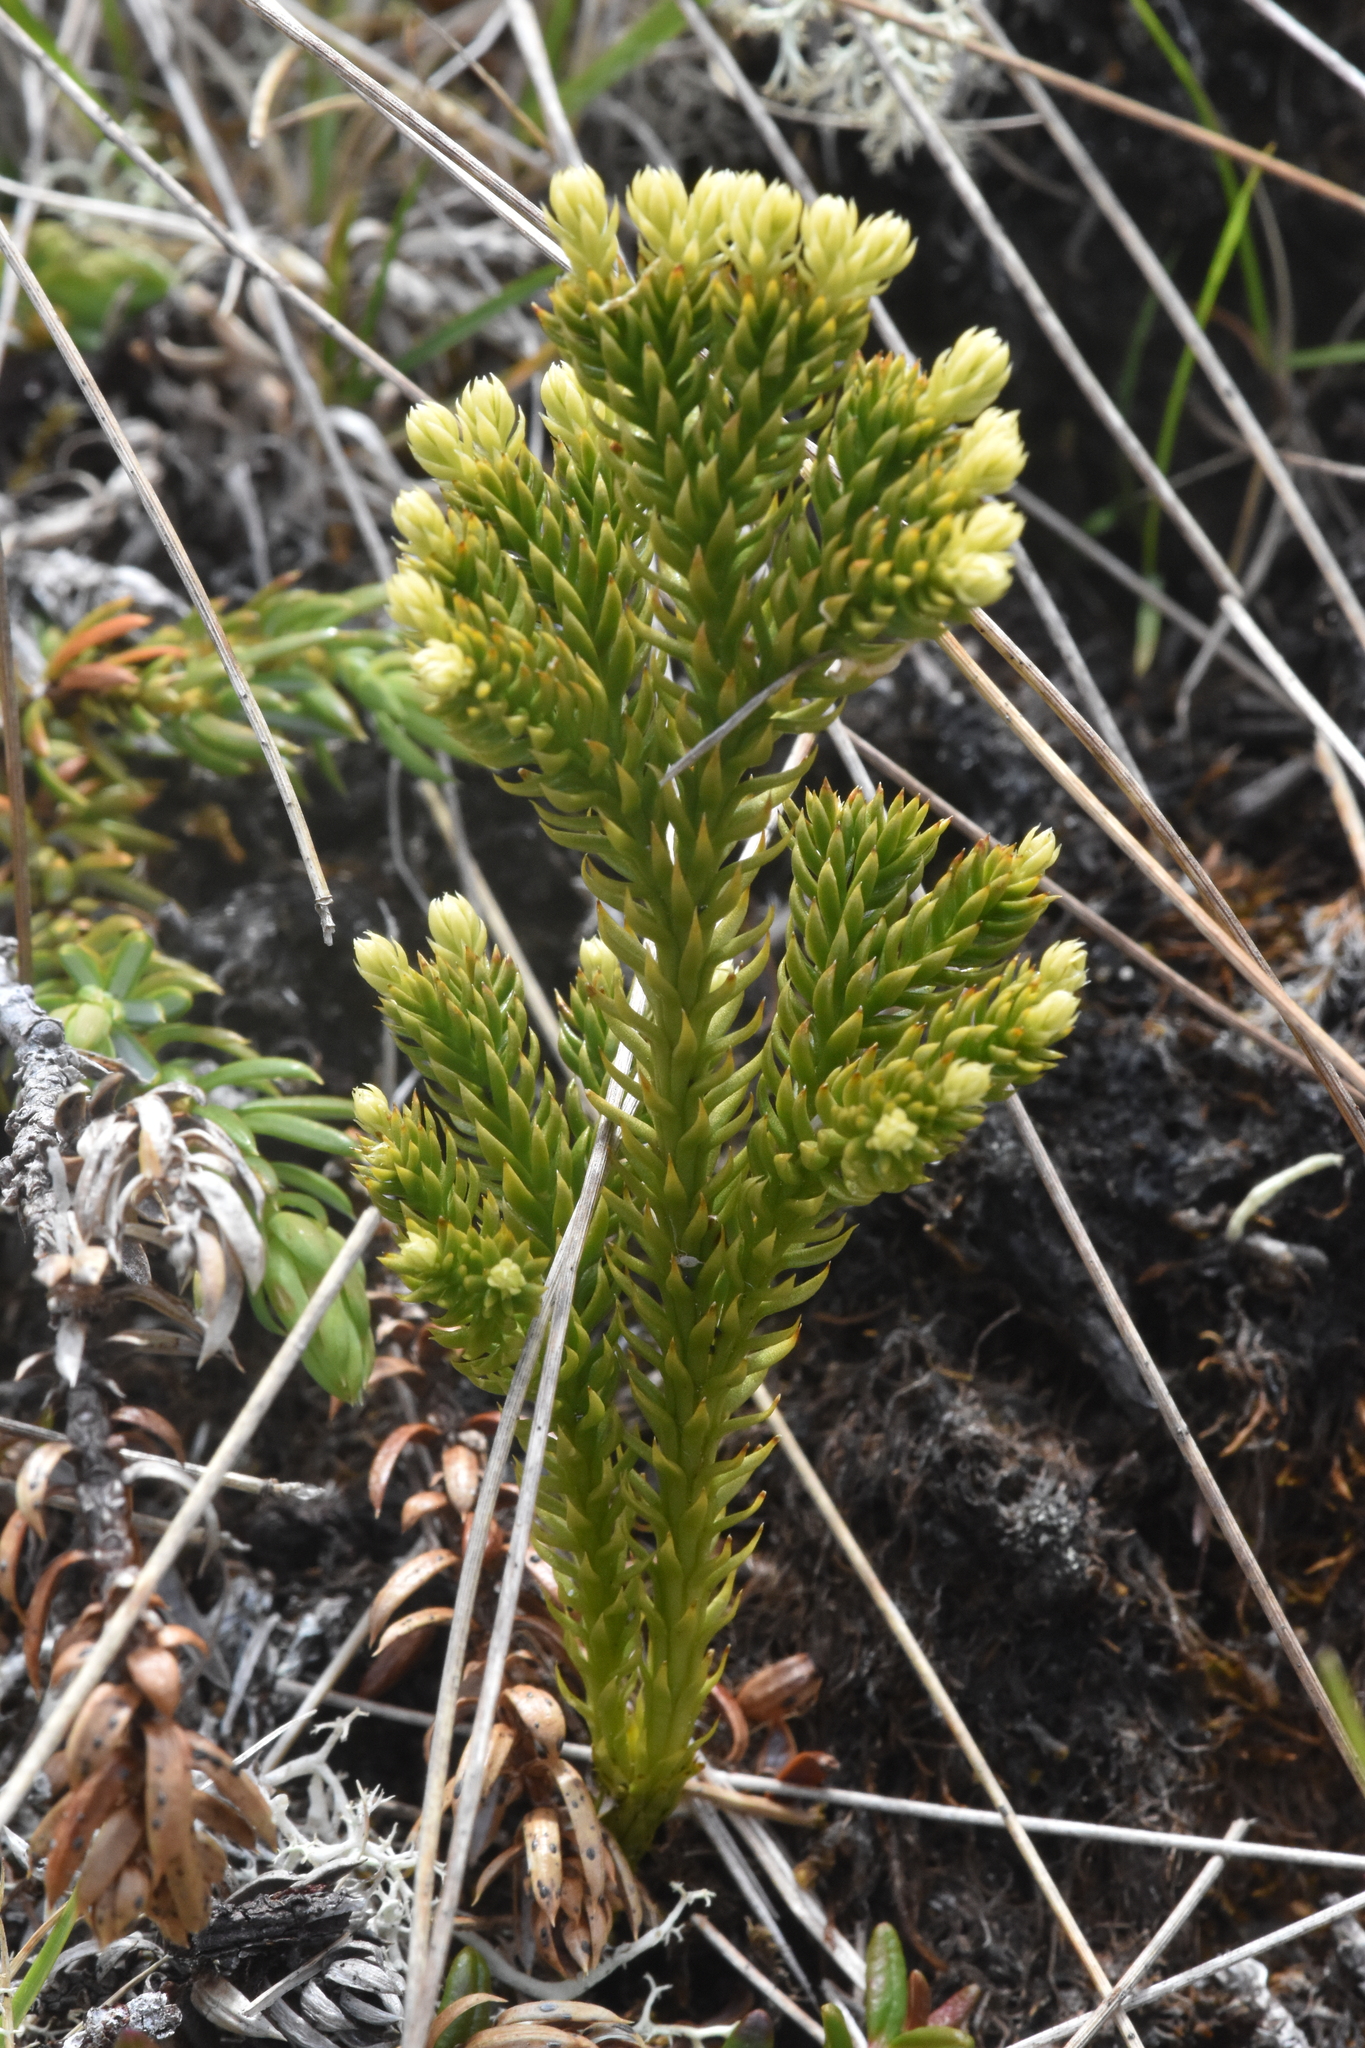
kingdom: Plantae
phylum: Tracheophyta
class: Lycopodiopsida
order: Lycopodiales
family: Lycopodiaceae
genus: Dendrolycopodium
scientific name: Dendrolycopodium dendroideum
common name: Northern tree-clubmoss
